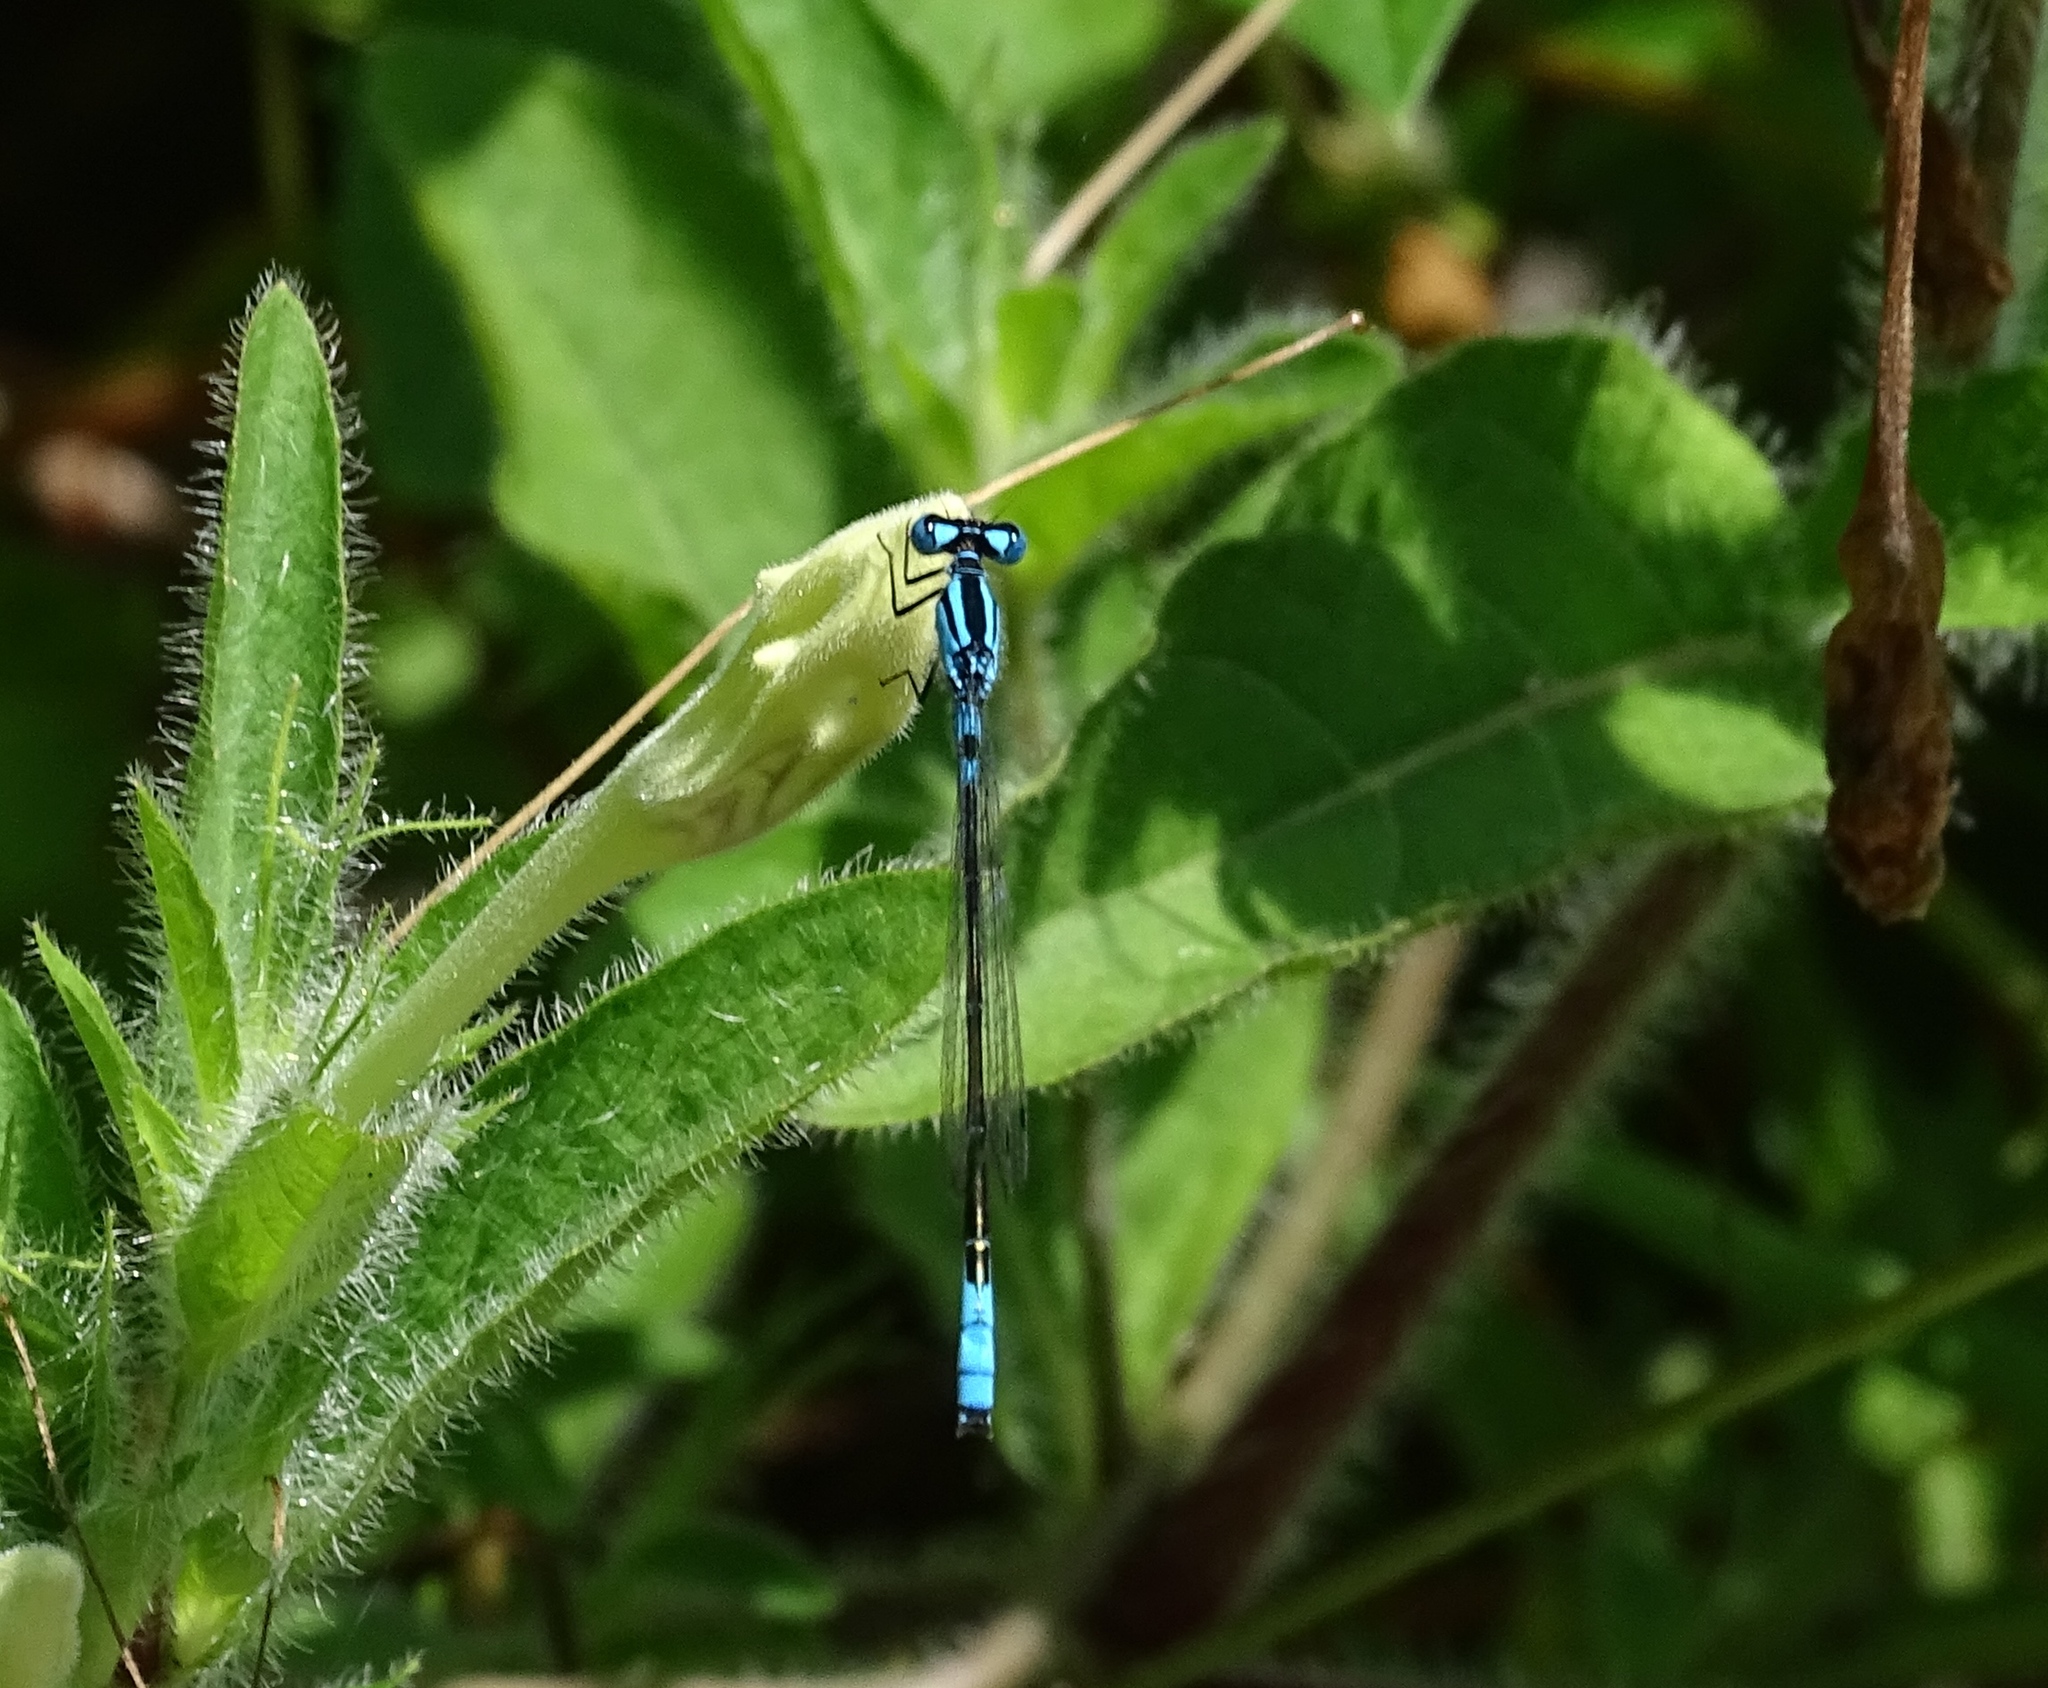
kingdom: Animalia
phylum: Arthropoda
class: Insecta
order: Odonata
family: Coenagrionidae
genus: Enallagma
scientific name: Enallagma aspersum
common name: Azure bluet
